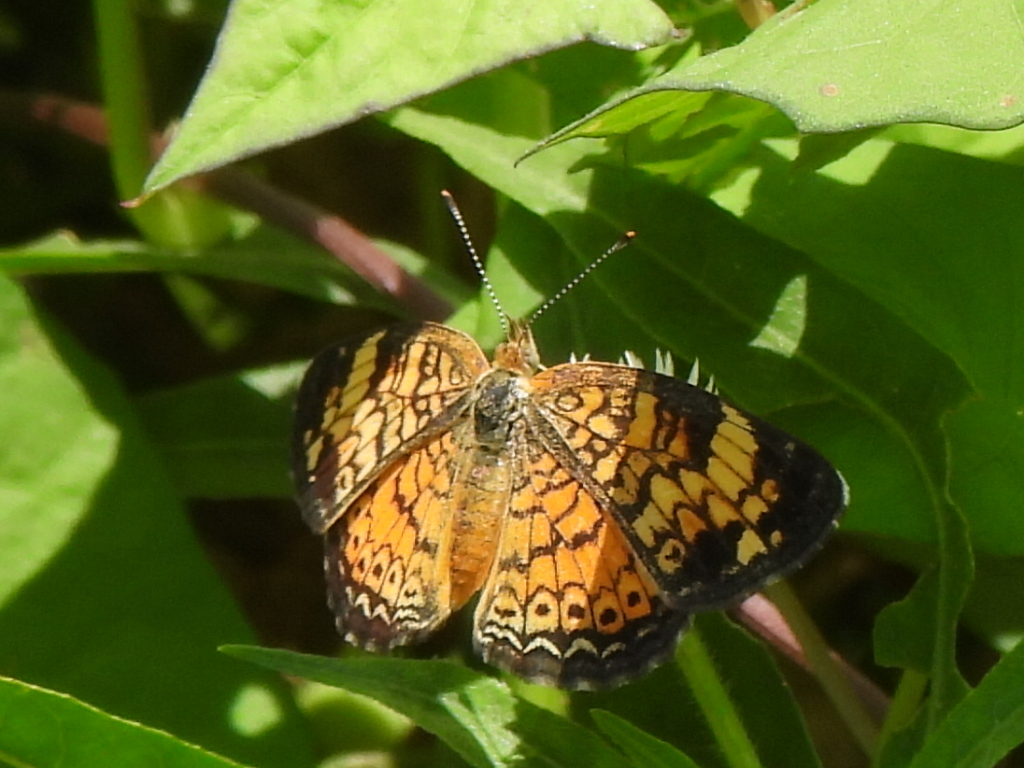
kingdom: Animalia
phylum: Arthropoda
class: Insecta
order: Lepidoptera
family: Nymphalidae
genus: Phyciodes
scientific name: Phyciodes tharos
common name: Pearl crescent
